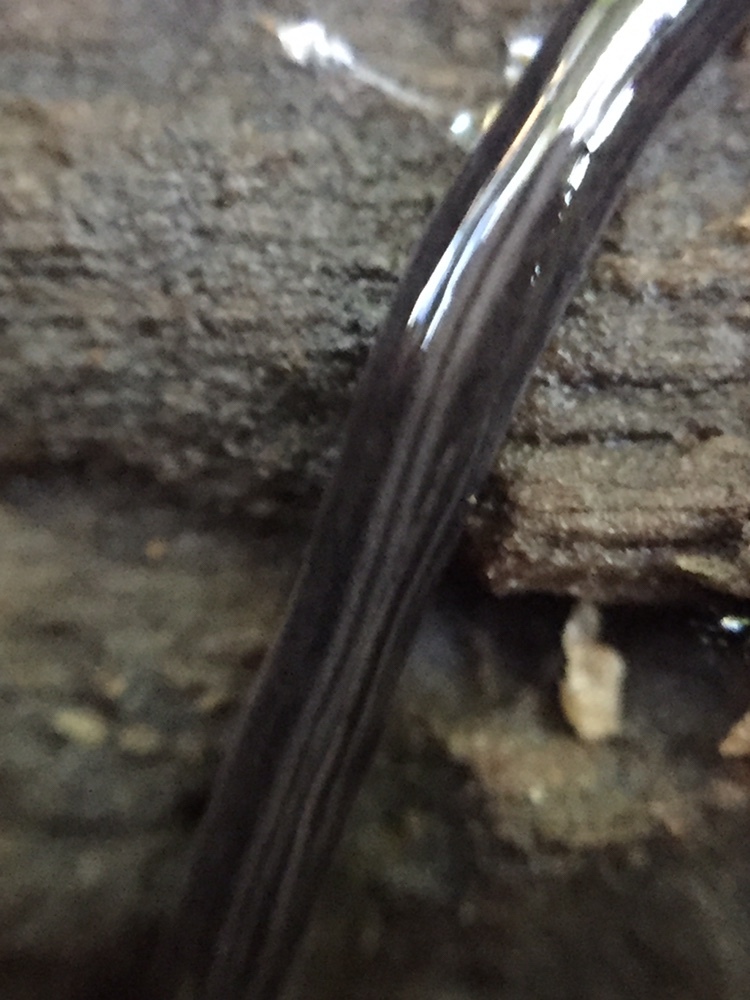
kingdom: Animalia
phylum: Platyhelminthes
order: Tricladida
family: Geoplanidae
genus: Parakontikia
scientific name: Parakontikia ventrolineata
